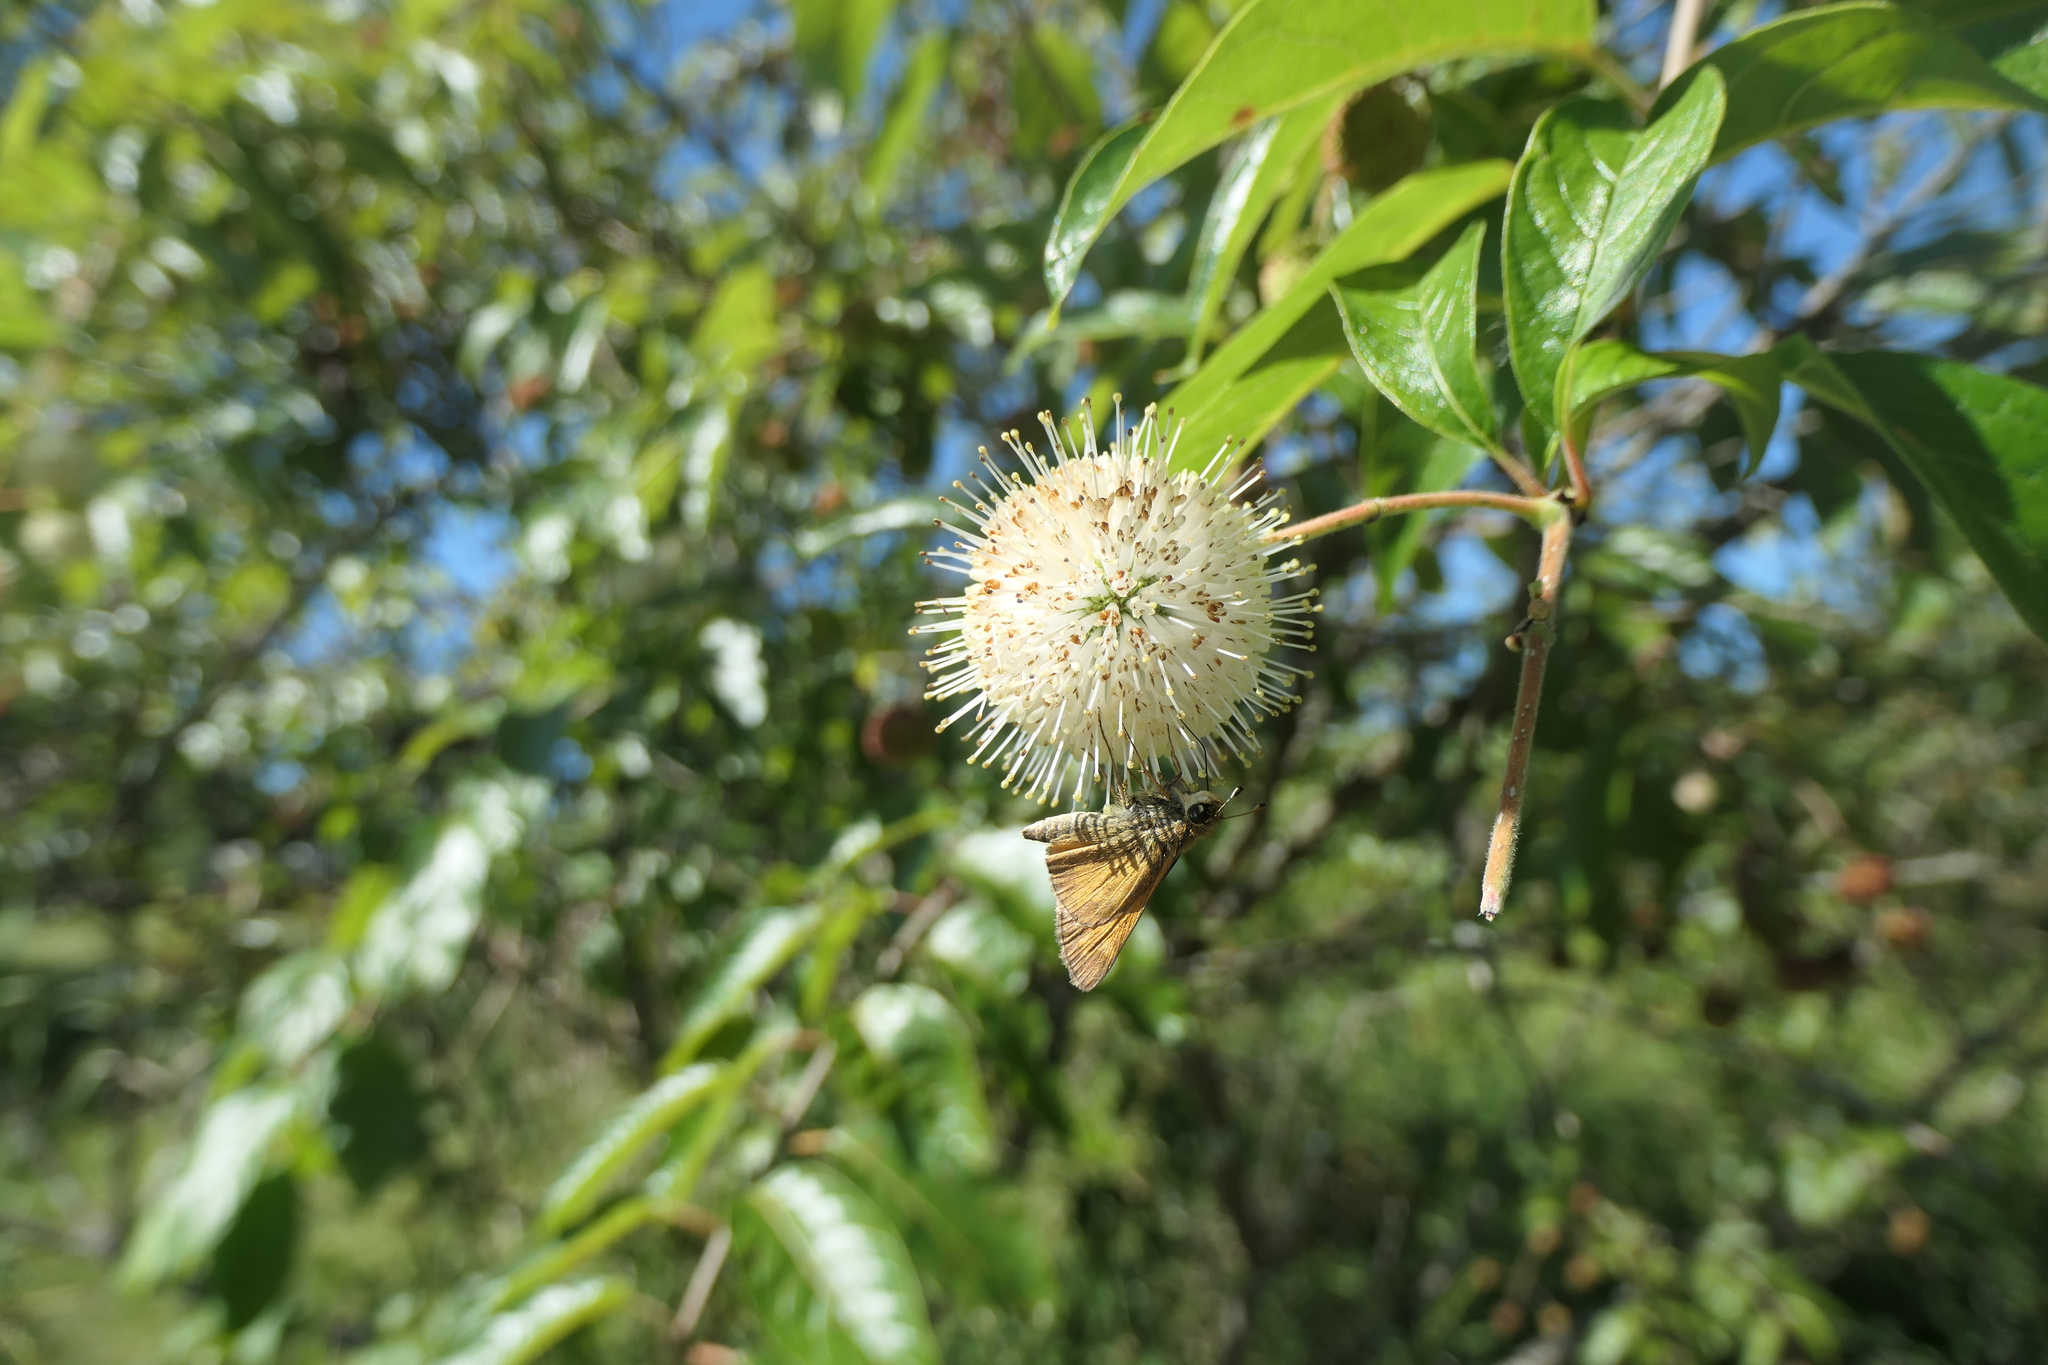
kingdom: Animalia
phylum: Arthropoda
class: Insecta
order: Lepidoptera
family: Hesperiidae
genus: Atalopedes
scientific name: Atalopedes
